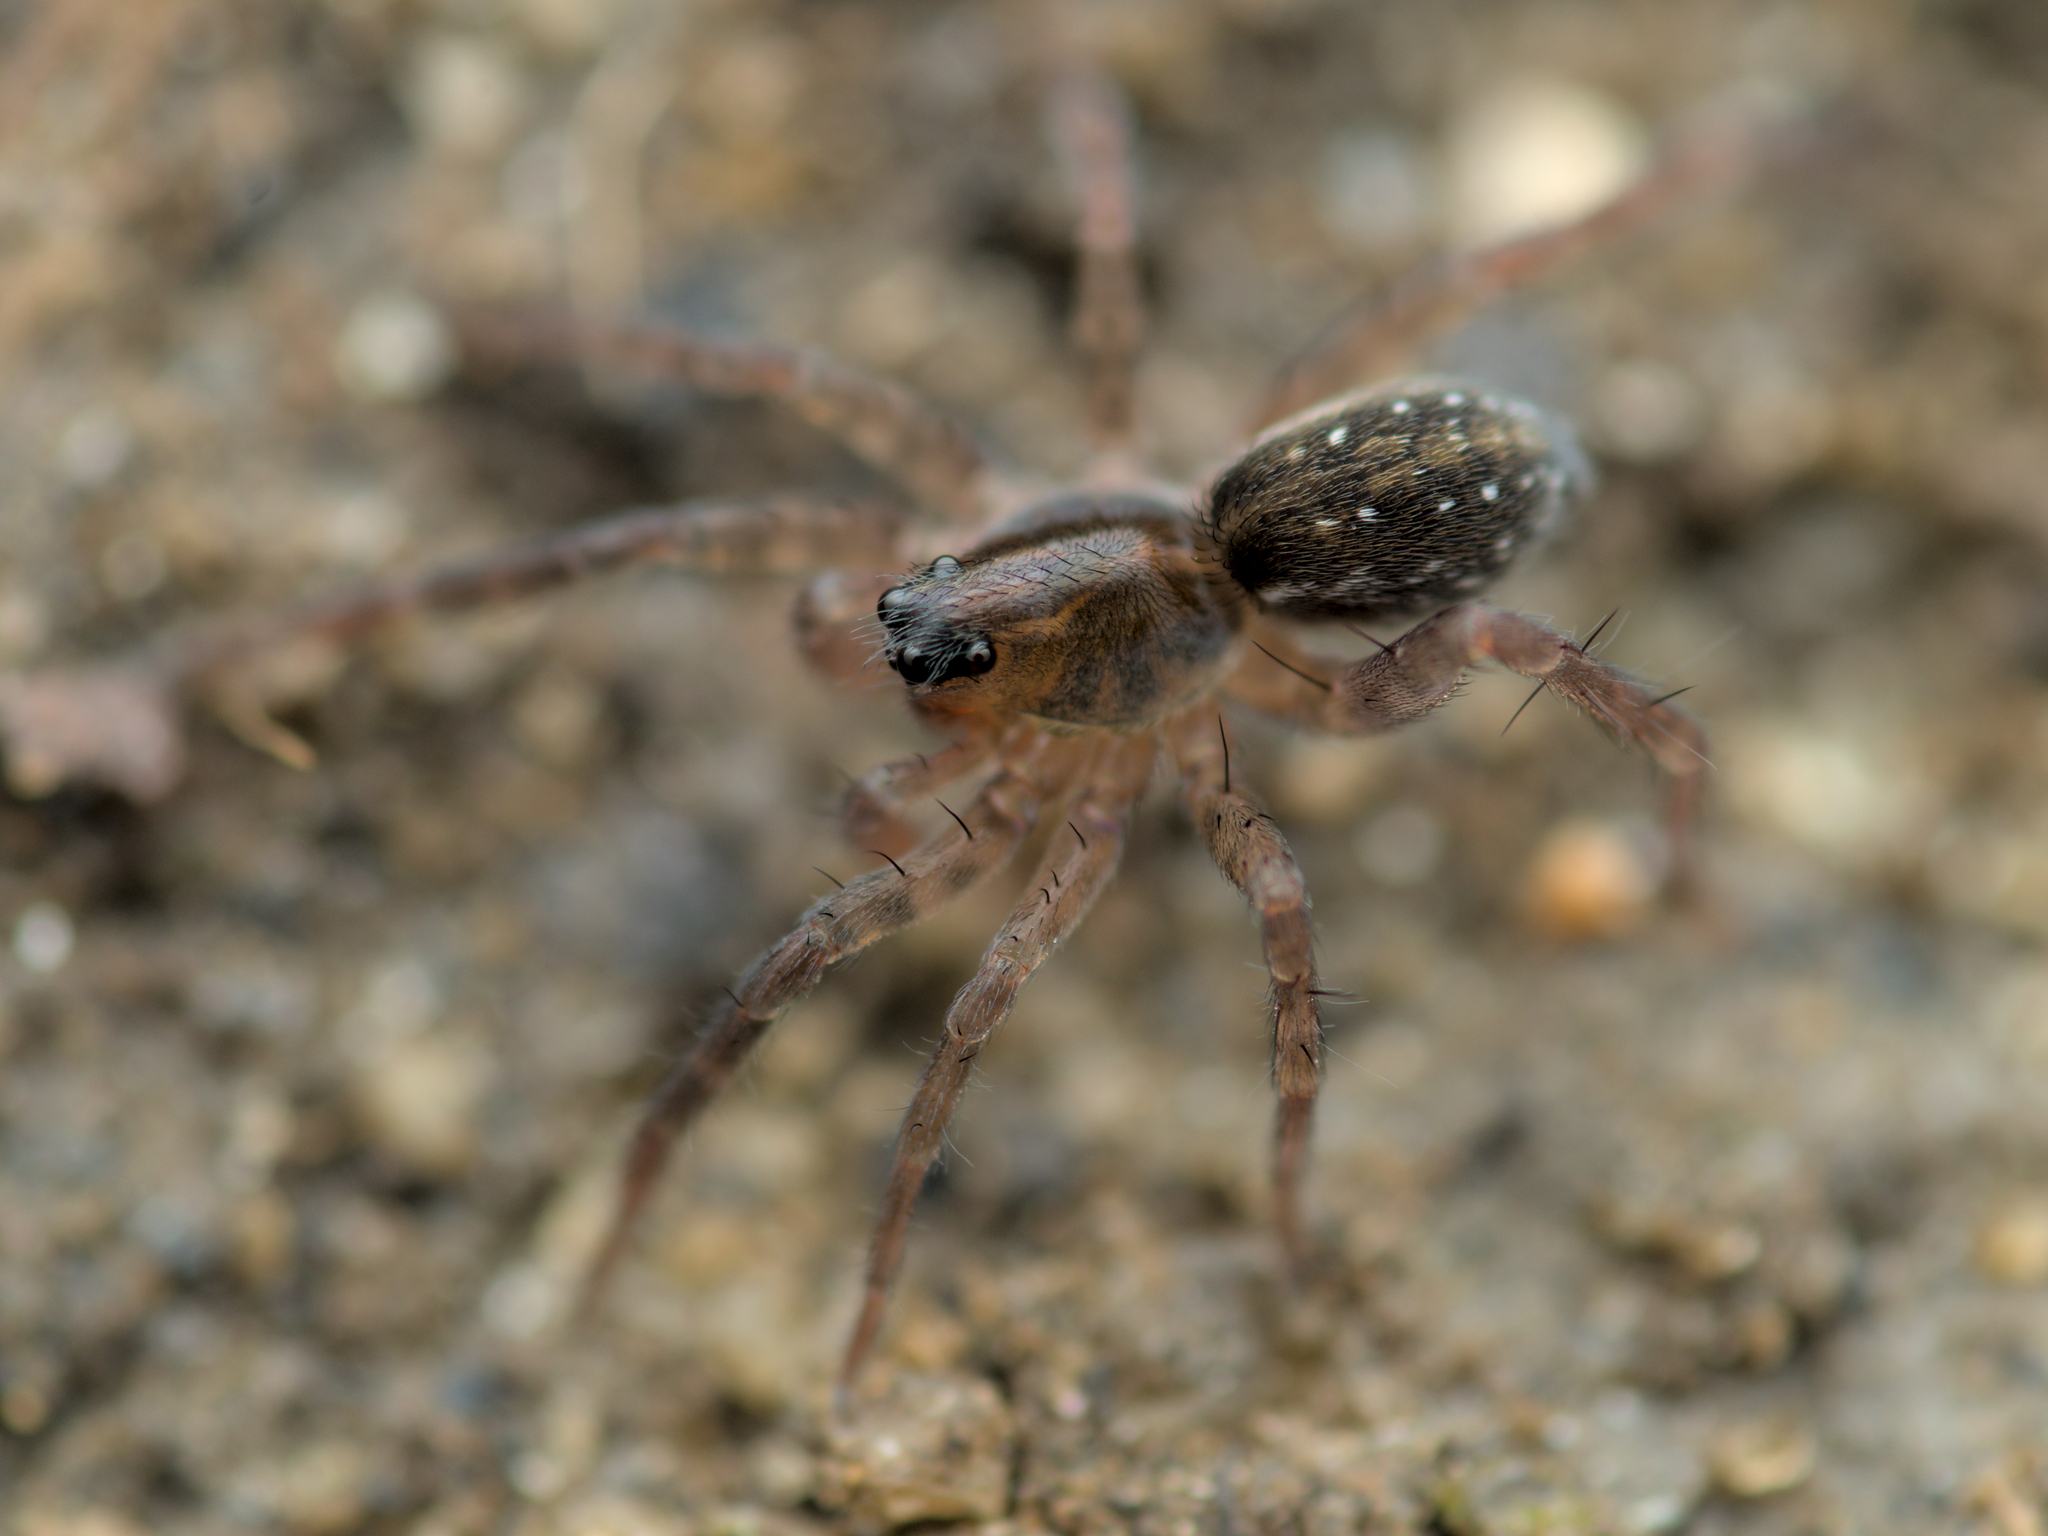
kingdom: Animalia
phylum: Arthropoda
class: Arachnida
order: Araneae
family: Lycosidae
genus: Piratula
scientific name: Piratula
